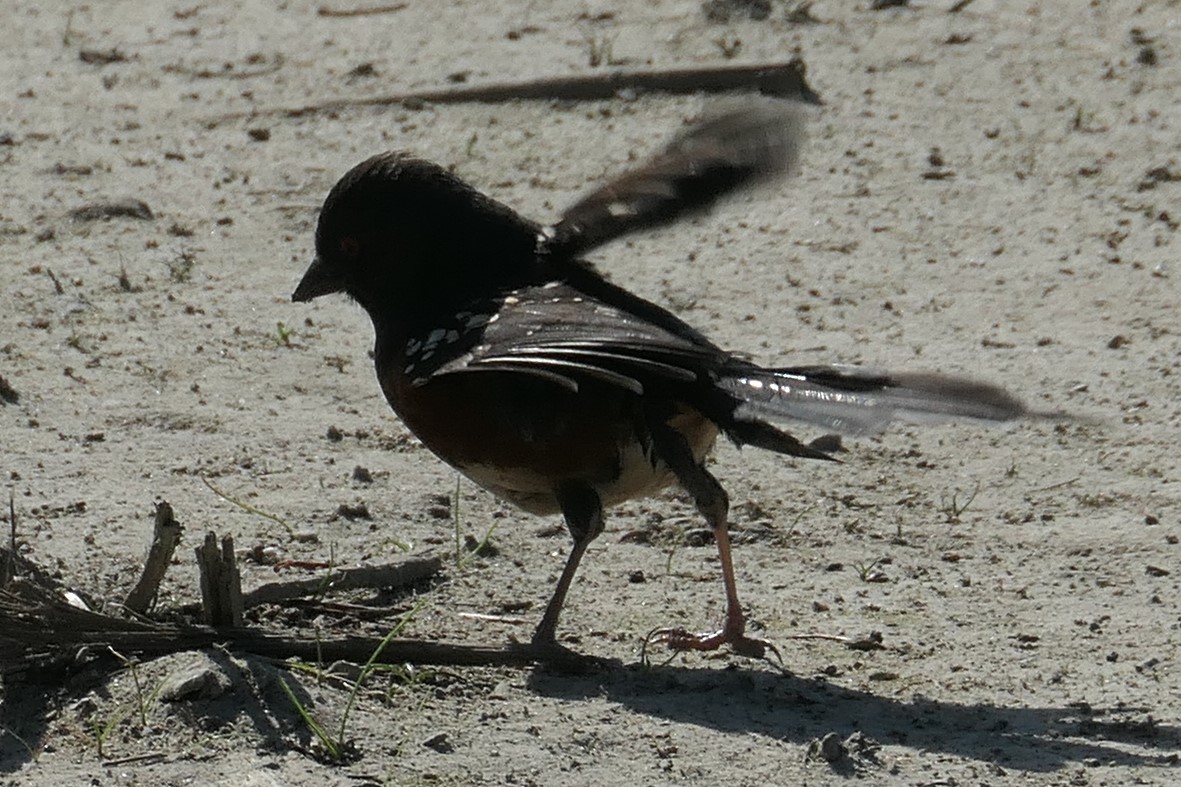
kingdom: Animalia
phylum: Chordata
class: Aves
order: Passeriformes
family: Passerellidae
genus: Pipilo
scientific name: Pipilo maculatus
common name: Spotted towhee
